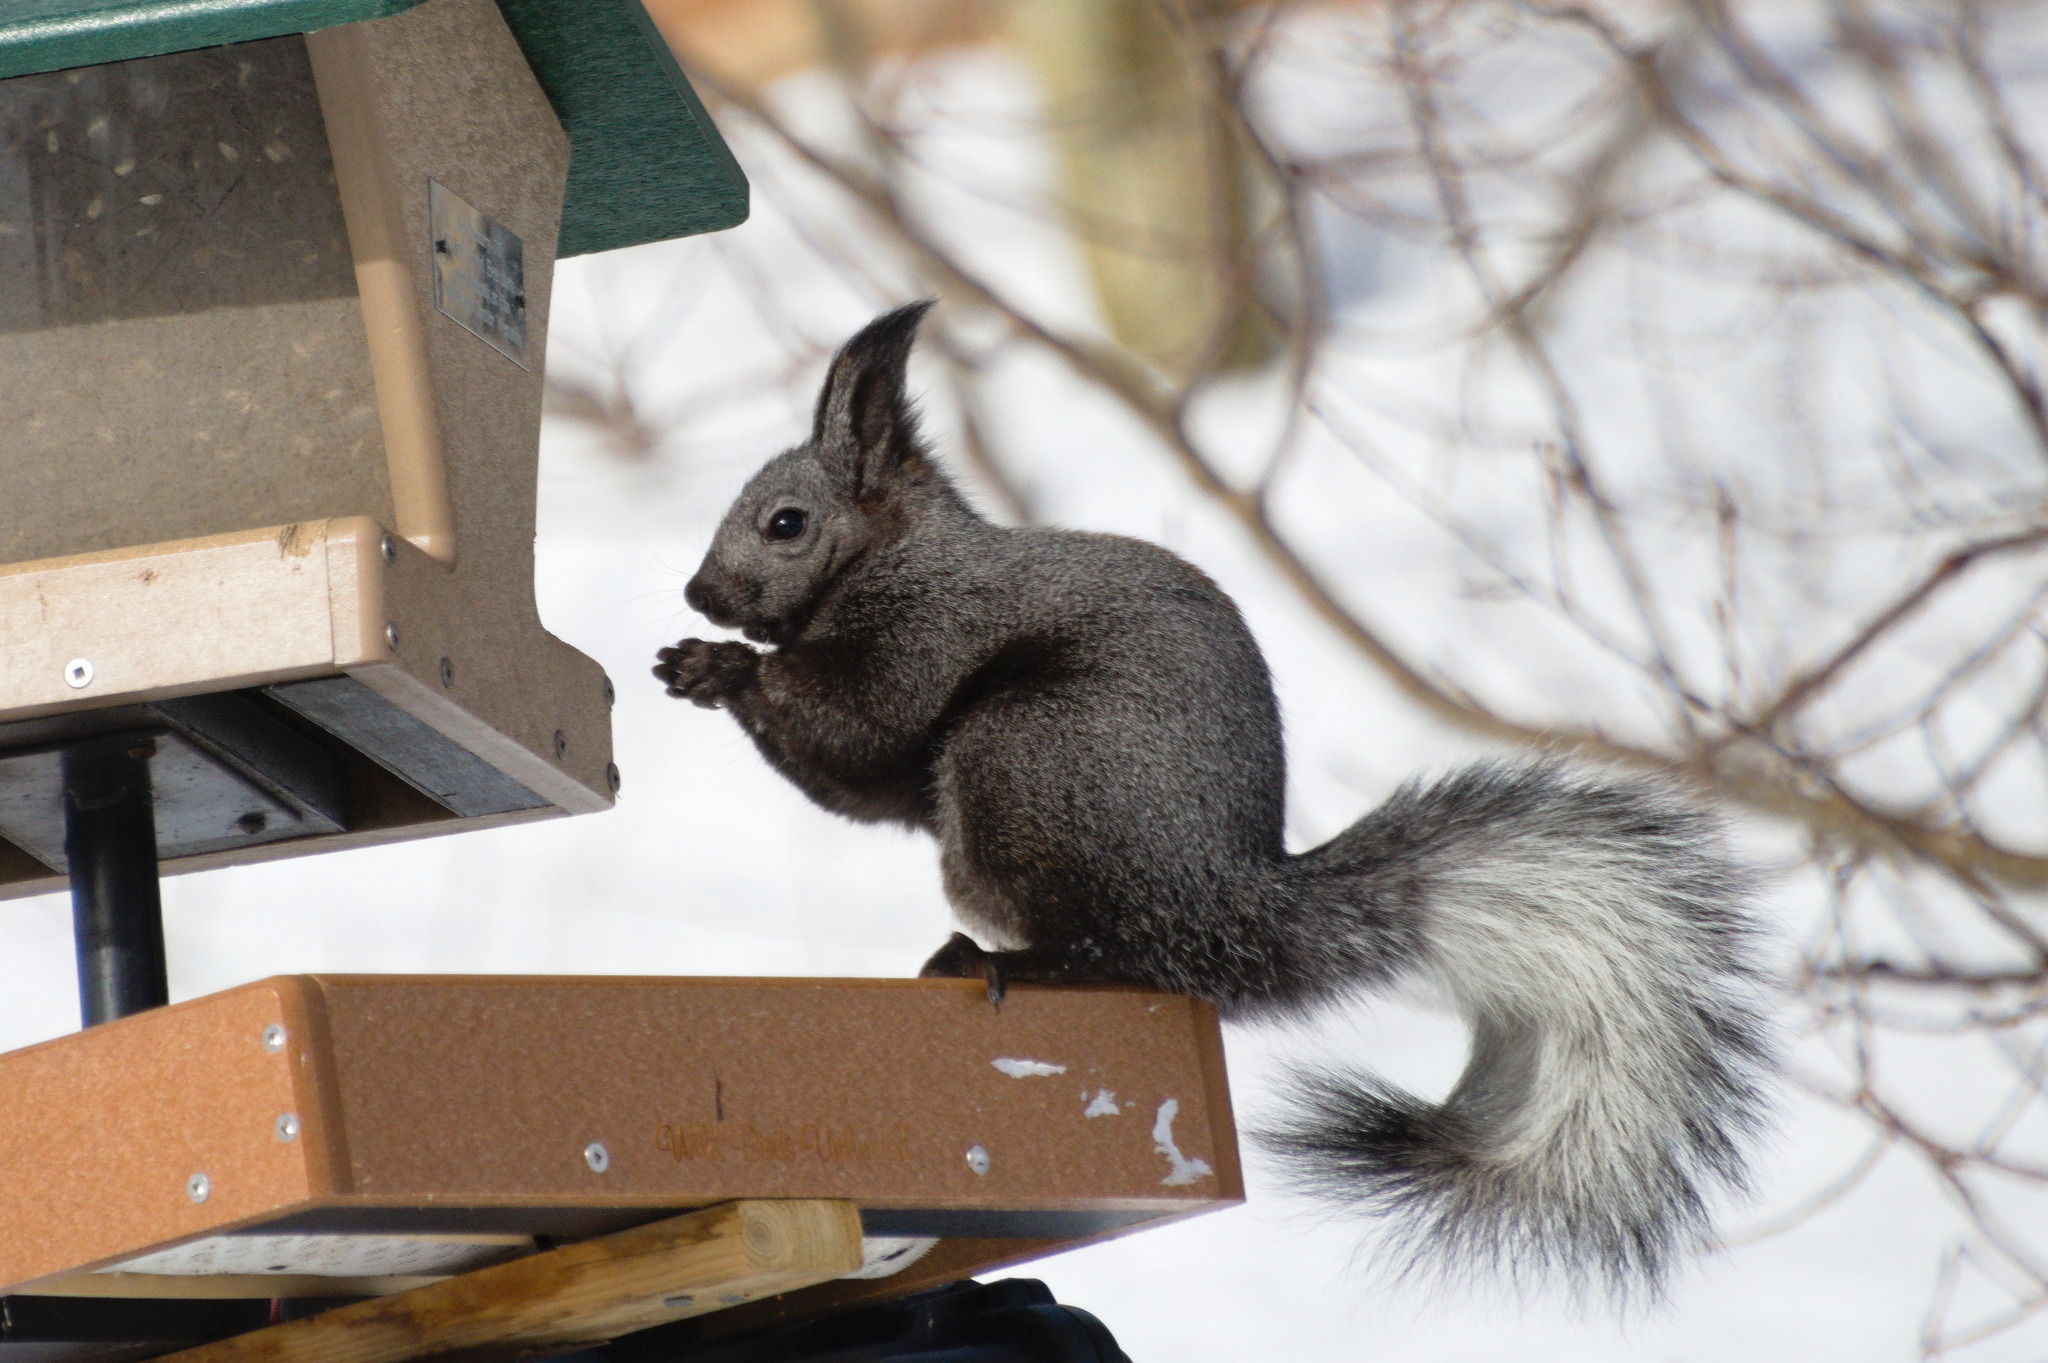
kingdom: Animalia
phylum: Chordata
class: Mammalia
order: Rodentia
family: Sciuridae
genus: Sciurus
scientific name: Sciurus aberti
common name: Abert's squirrel
